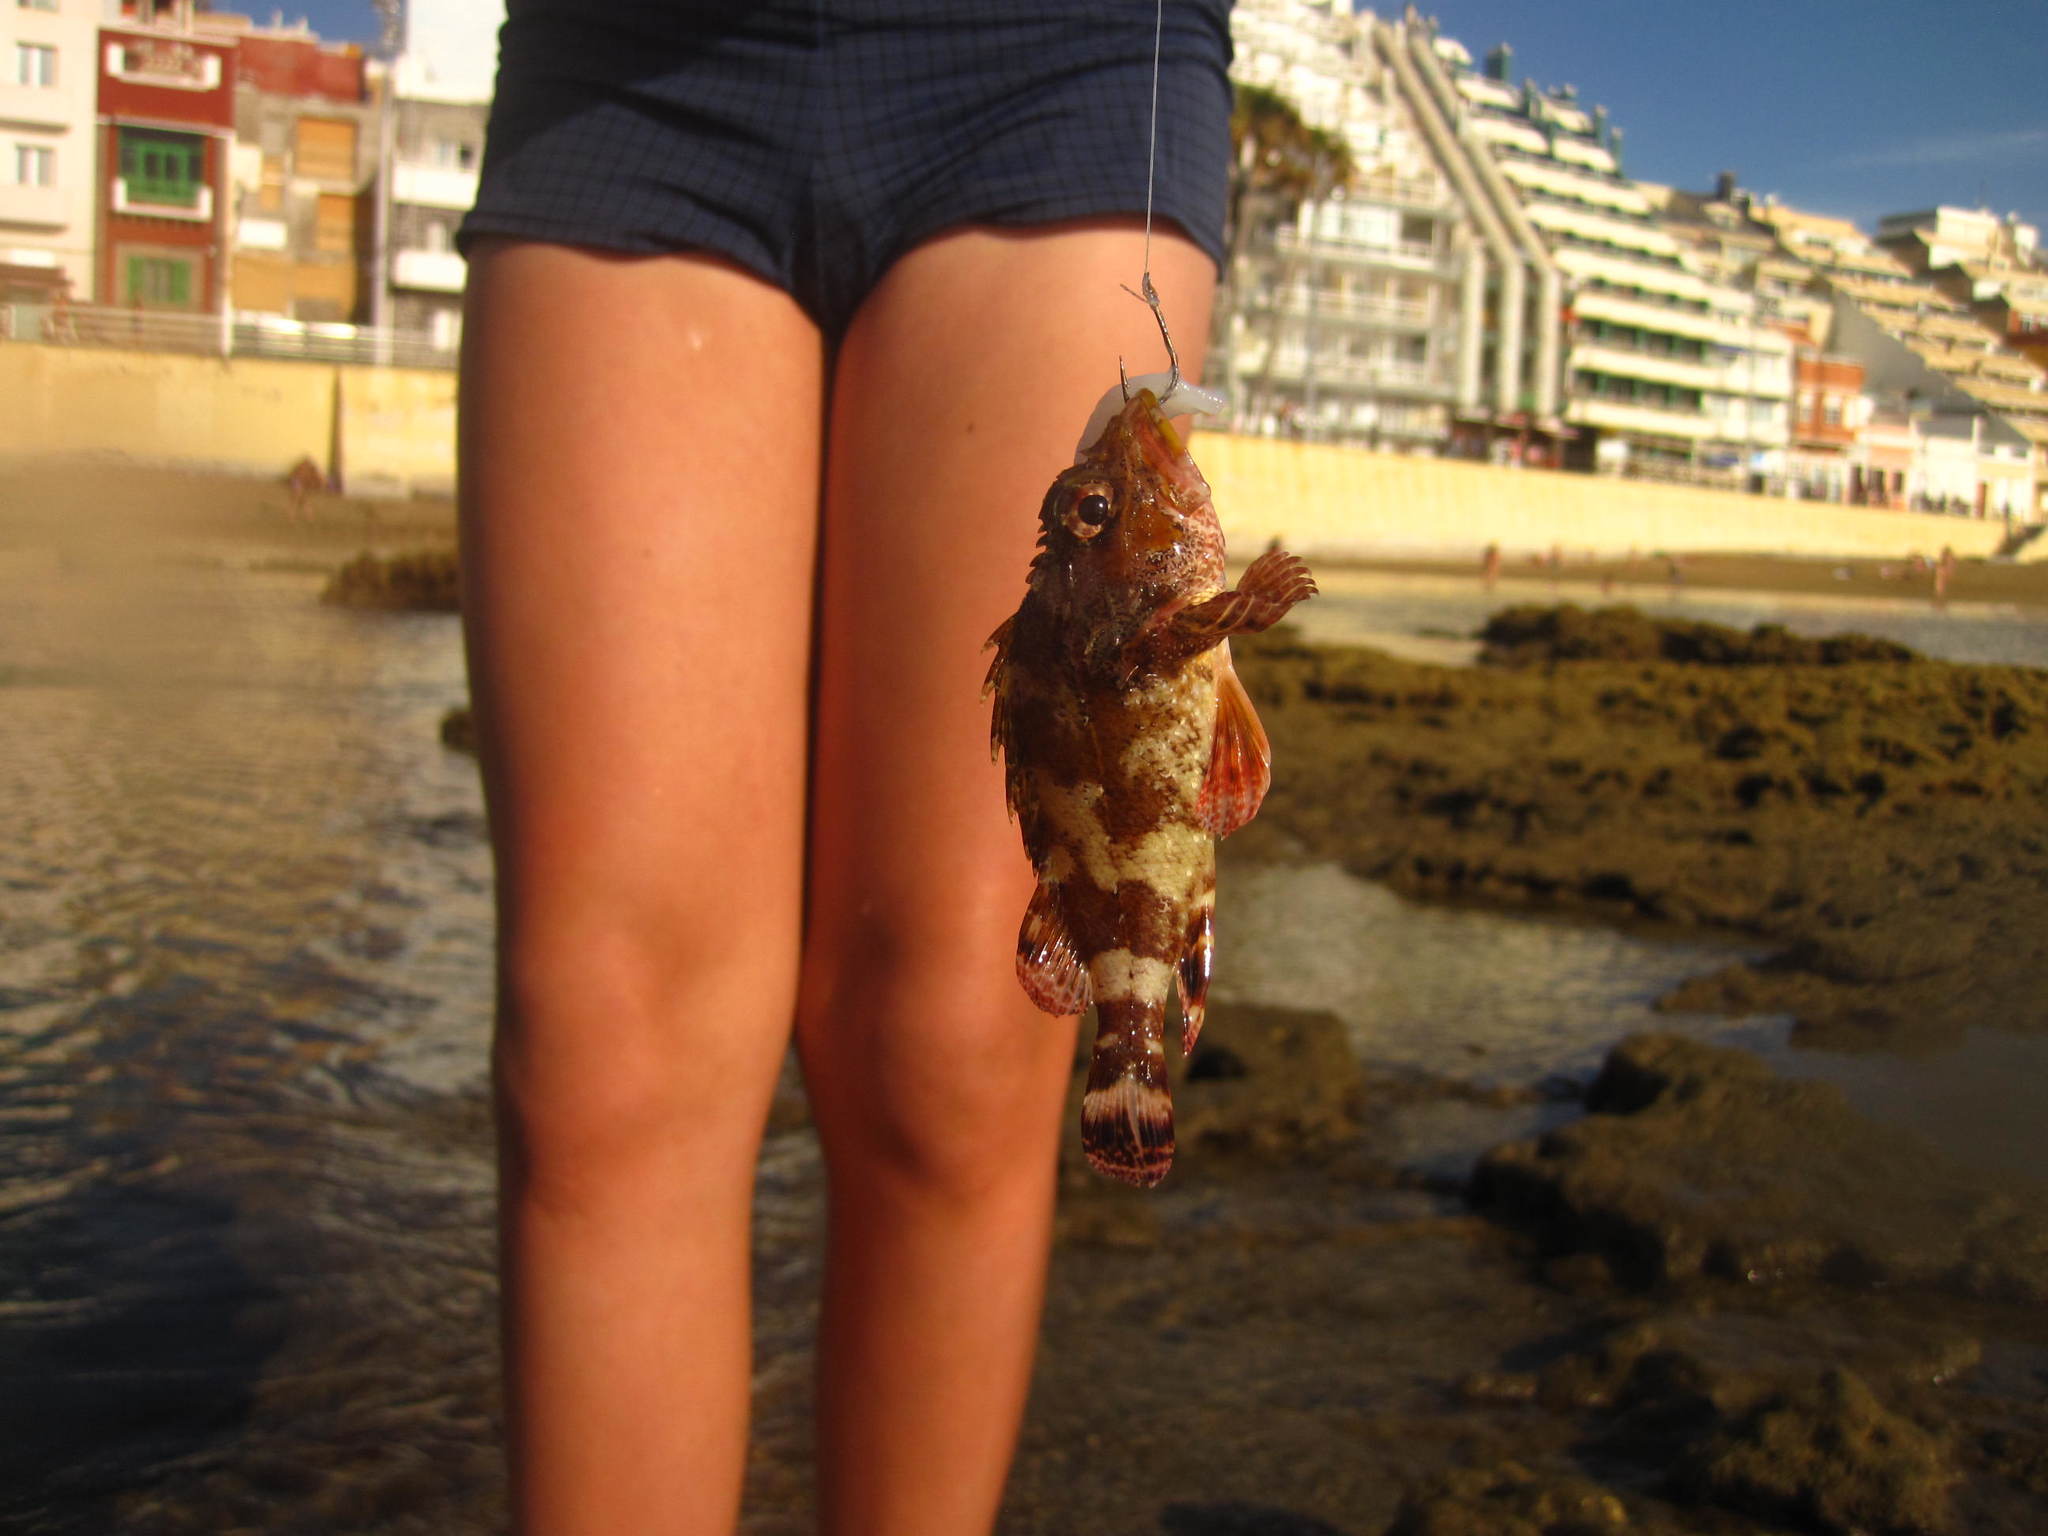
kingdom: Animalia
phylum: Chordata
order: Scorpaeniformes
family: Scorpaenidae
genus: Scorpaena
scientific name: Scorpaena maderensis
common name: Madeira rockfish
